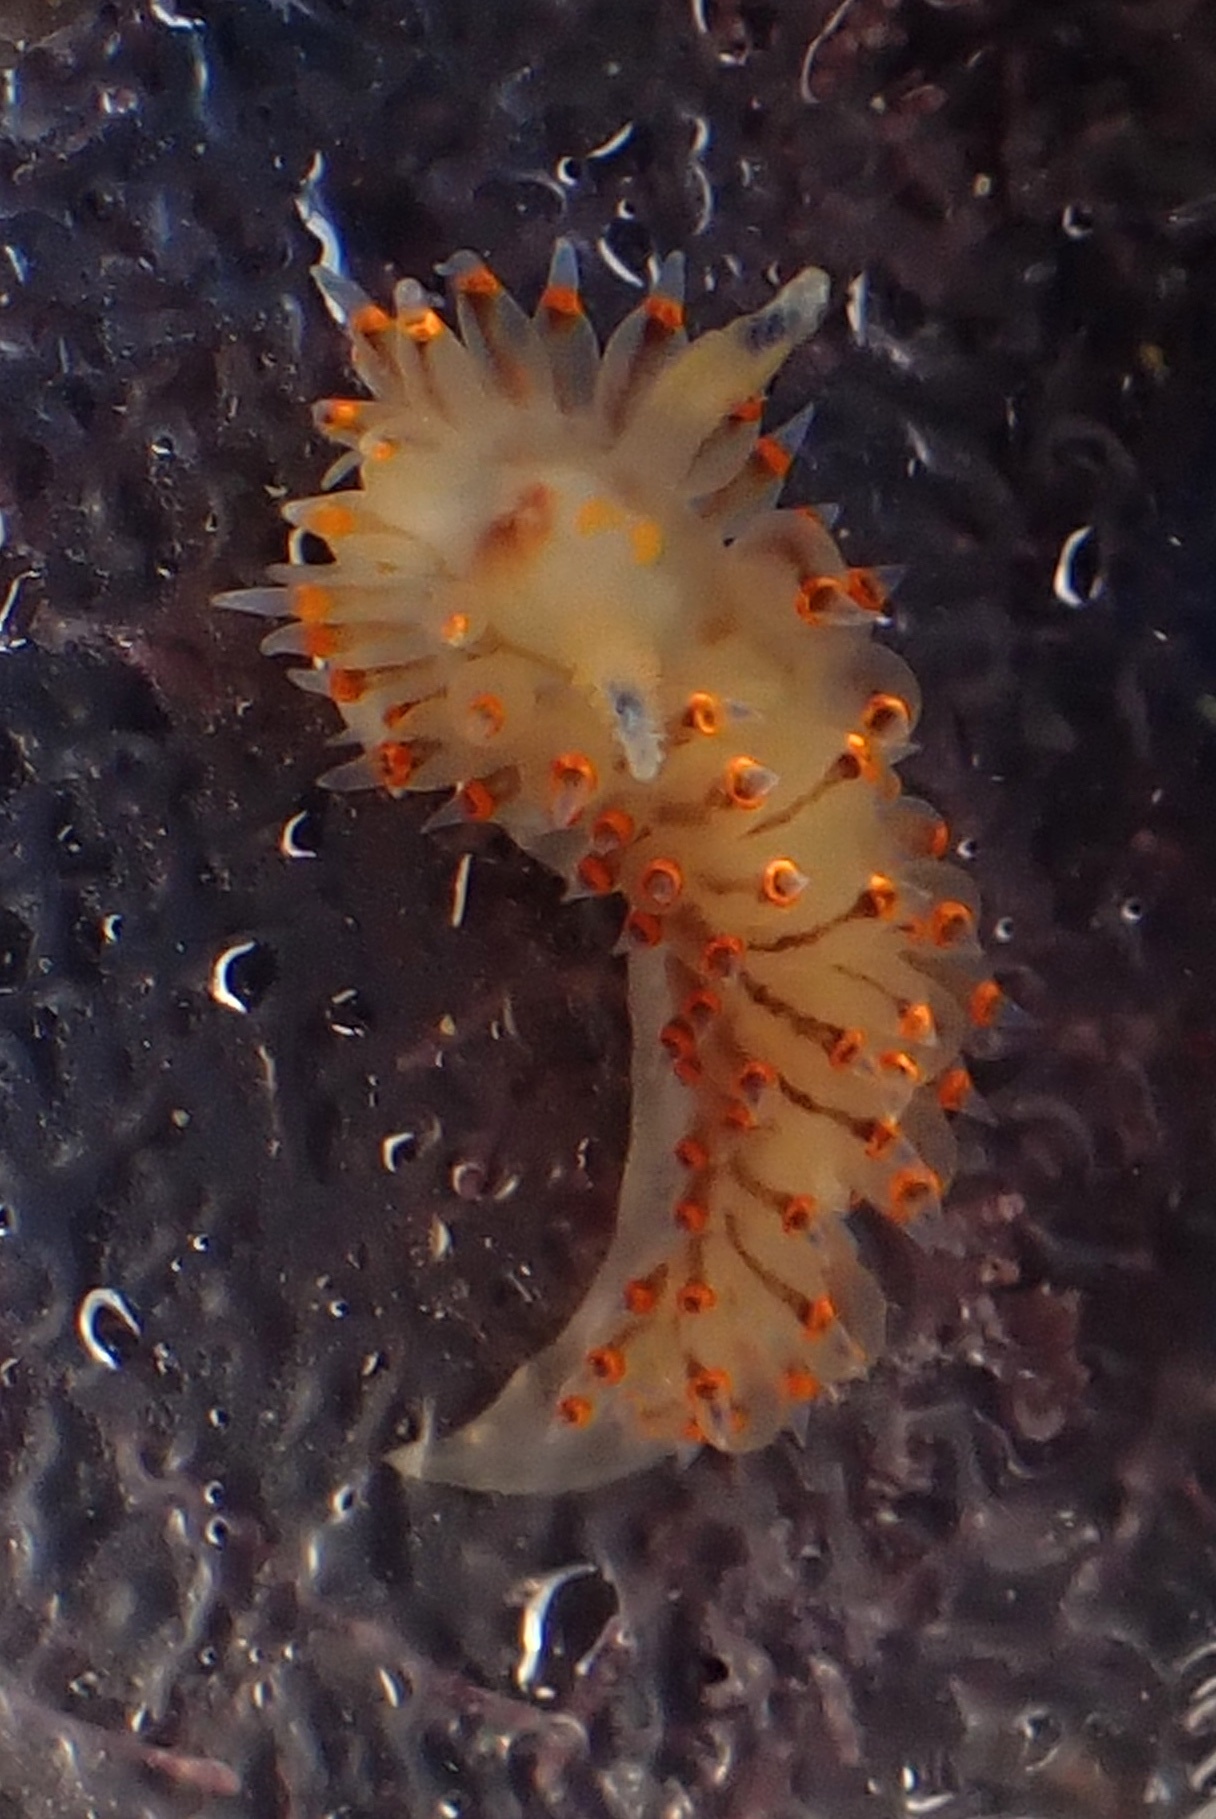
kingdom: Animalia
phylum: Mollusca
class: Gastropoda
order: Nudibranchia
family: Janolidae
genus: Antiopella
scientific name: Antiopella barbarensis
